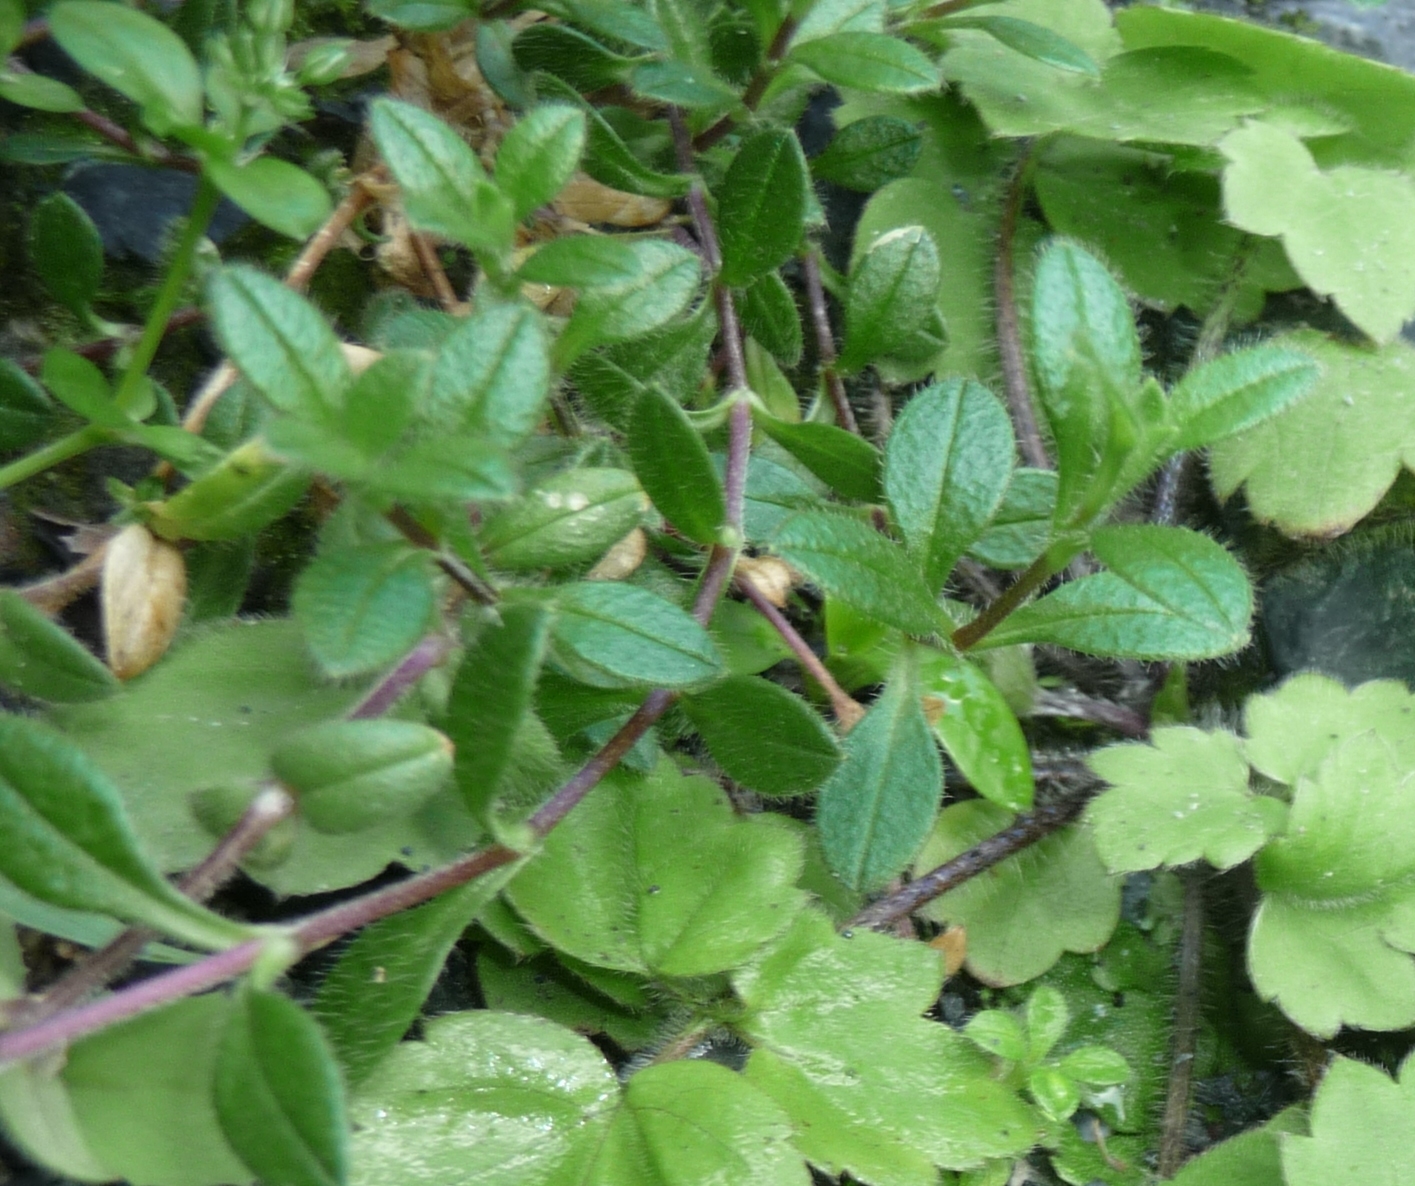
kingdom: Plantae
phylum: Tracheophyta
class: Magnoliopsida
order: Caryophyllales
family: Caryophyllaceae
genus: Cerastium
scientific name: Cerastium fontanum
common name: Common mouse-ear
